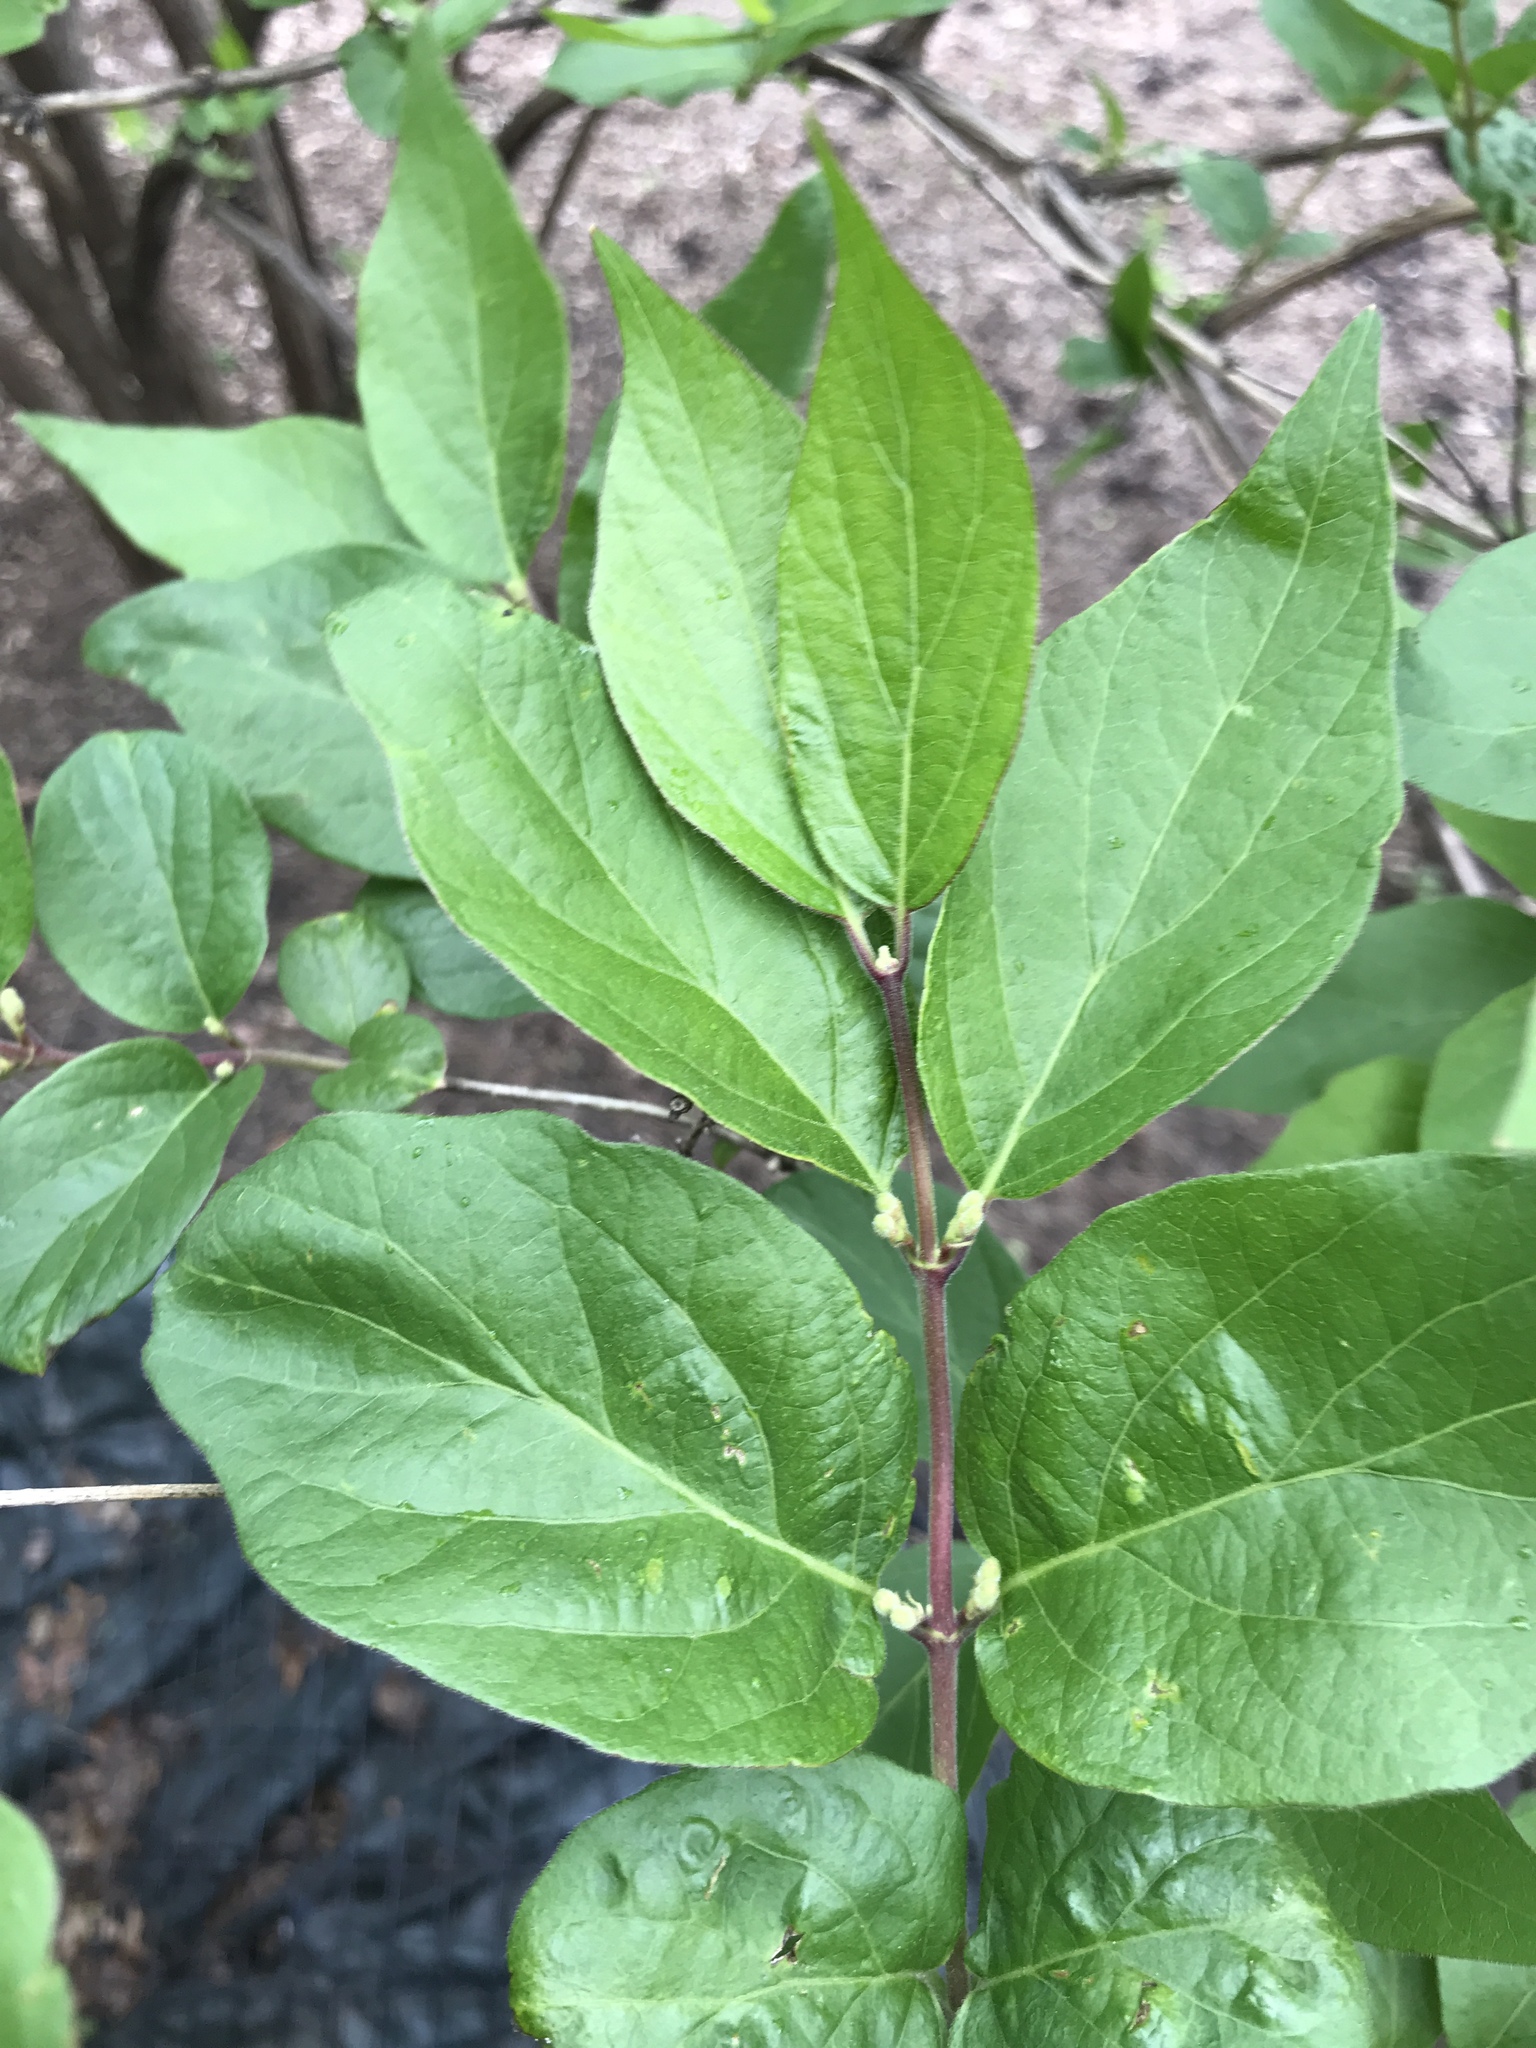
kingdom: Plantae
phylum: Tracheophyta
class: Magnoliopsida
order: Dipsacales
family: Caprifoliaceae
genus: Lonicera
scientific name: Lonicera maackii
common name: Amur honeysuckle
